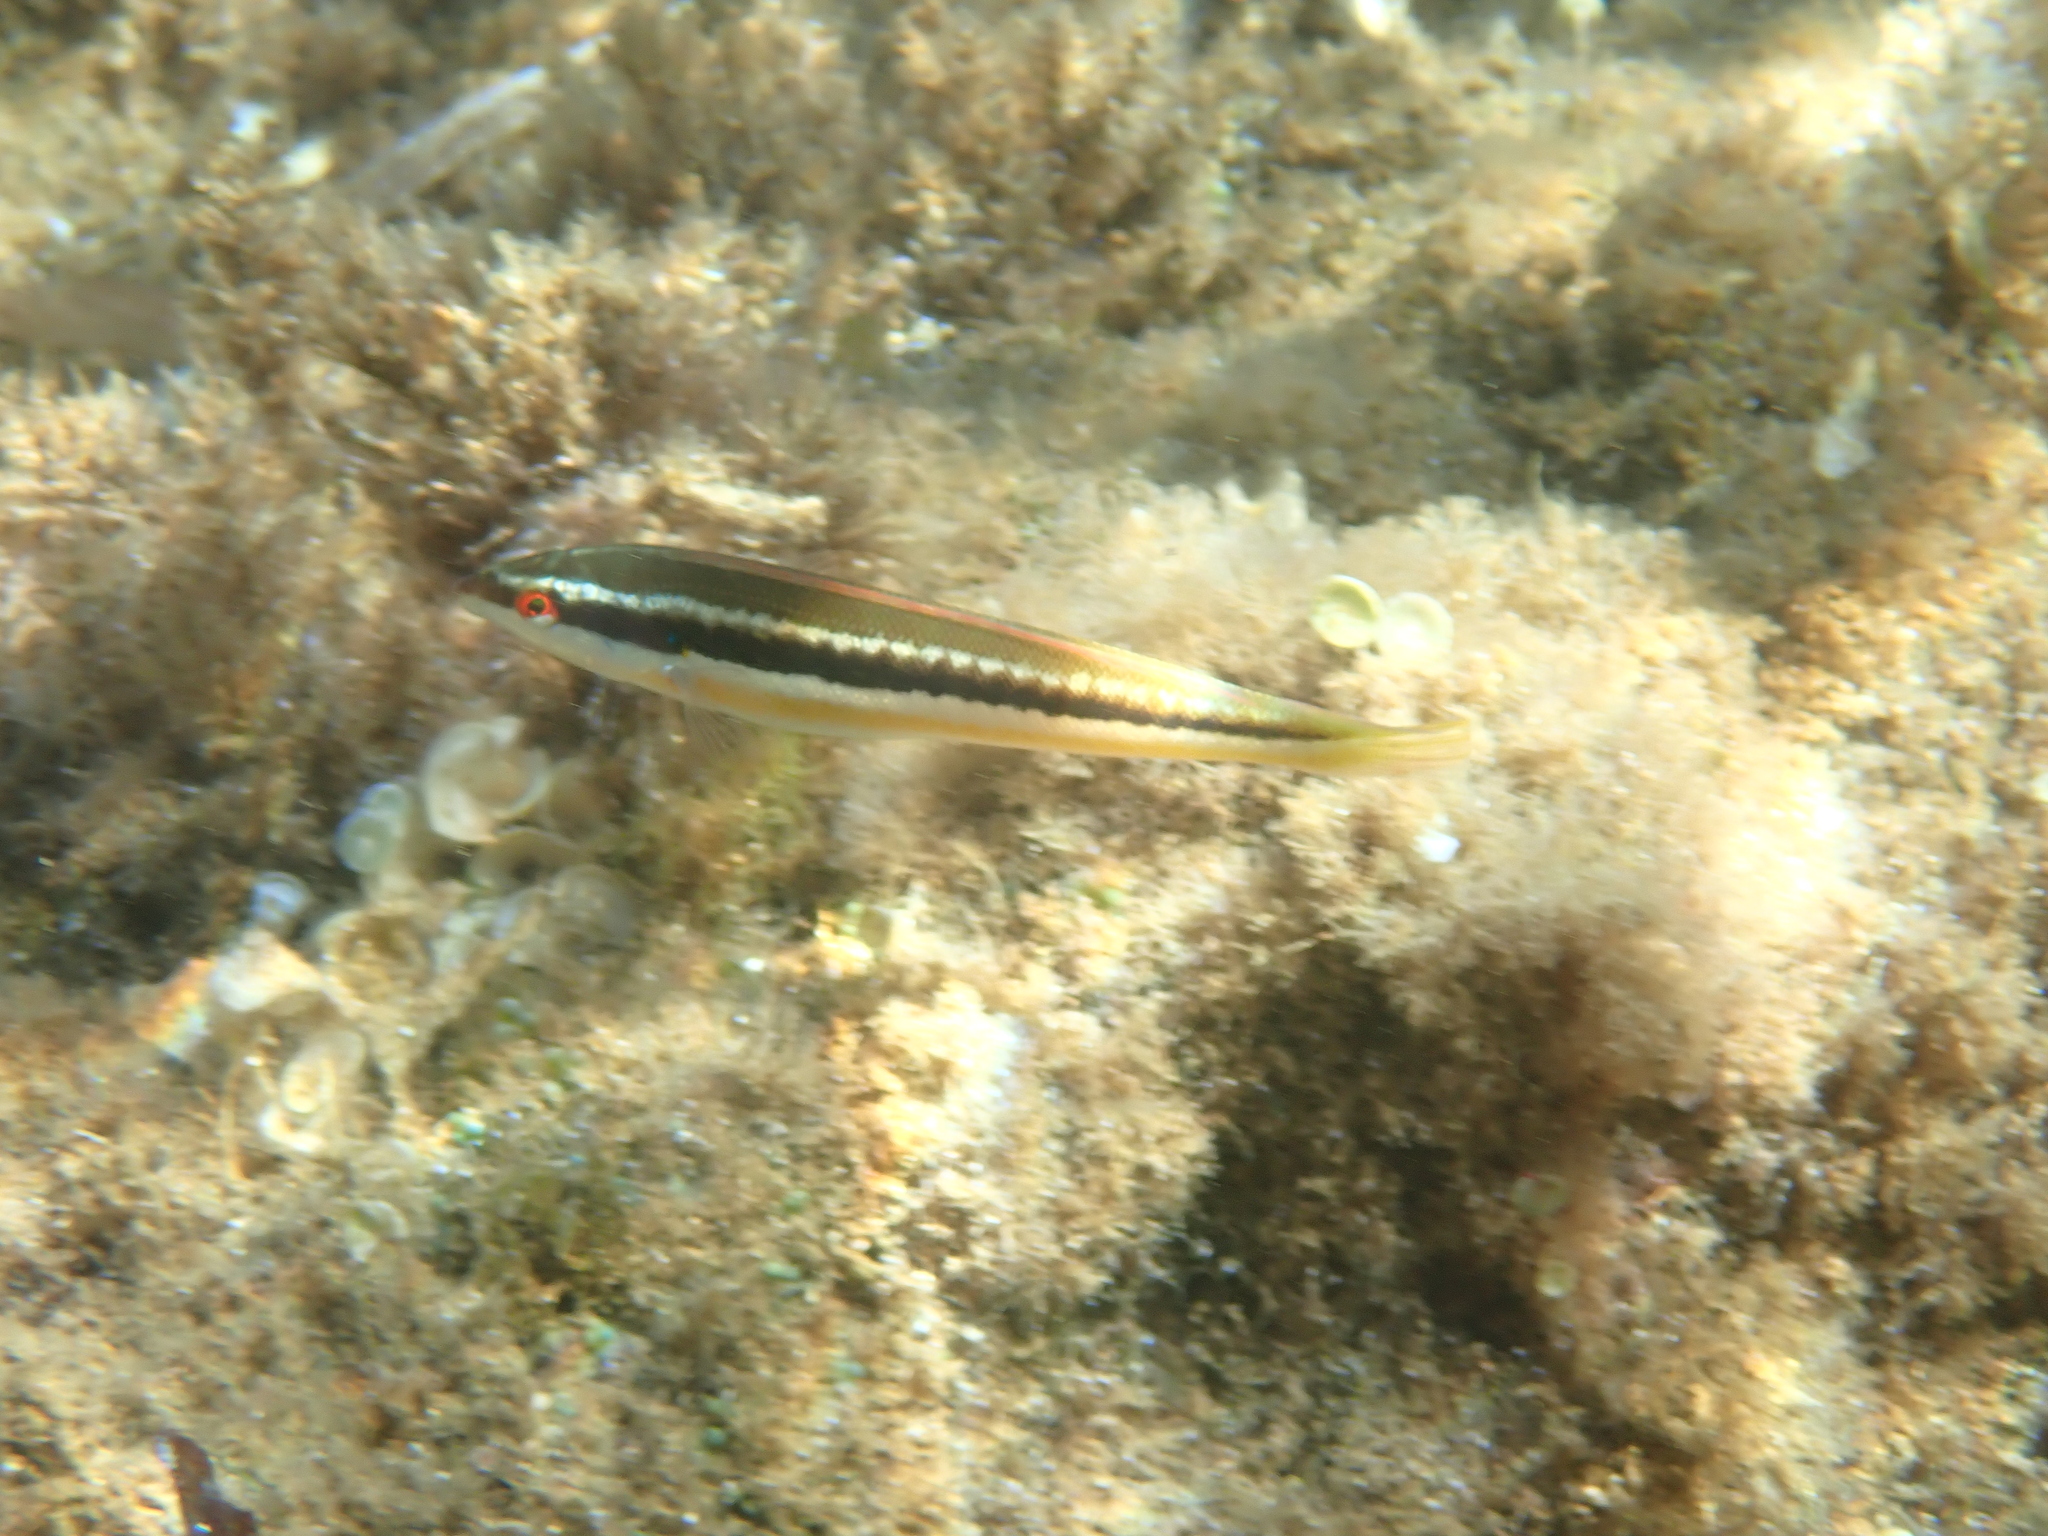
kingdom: Animalia
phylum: Chordata
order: Perciformes
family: Labridae
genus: Coris
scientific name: Coris julis
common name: Rainbow wrasse
